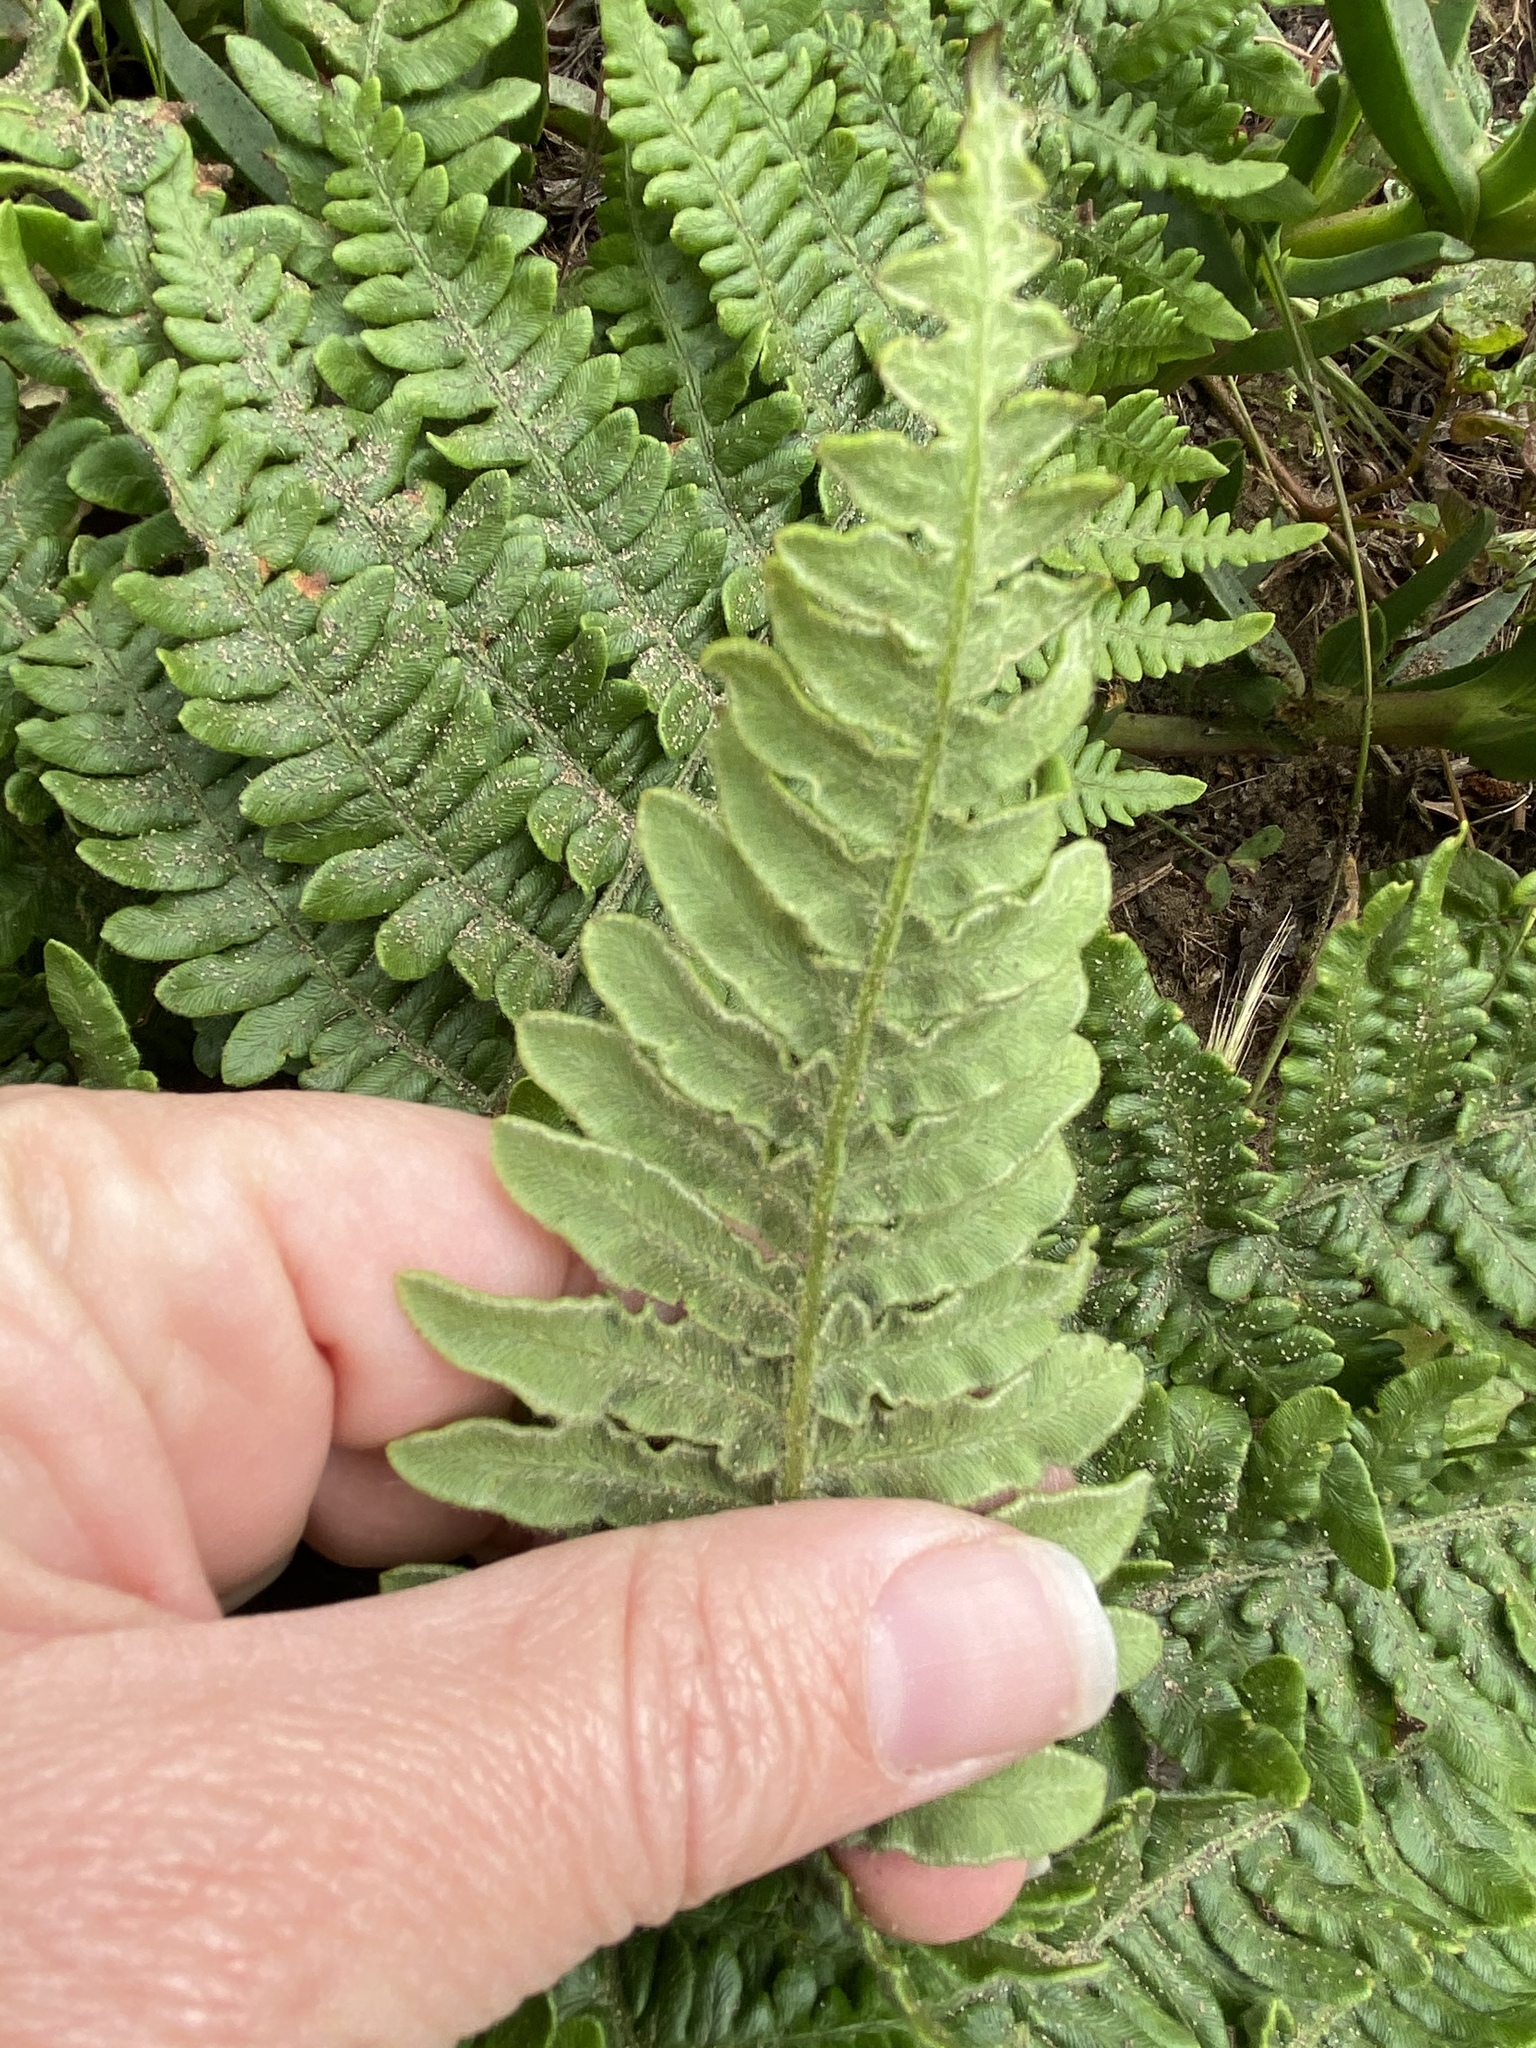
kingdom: Plantae
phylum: Tracheophyta
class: Polypodiopsida
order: Polypodiales
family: Dennstaedtiaceae
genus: Pteridium
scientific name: Pteridium aquilinum
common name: Bracken
